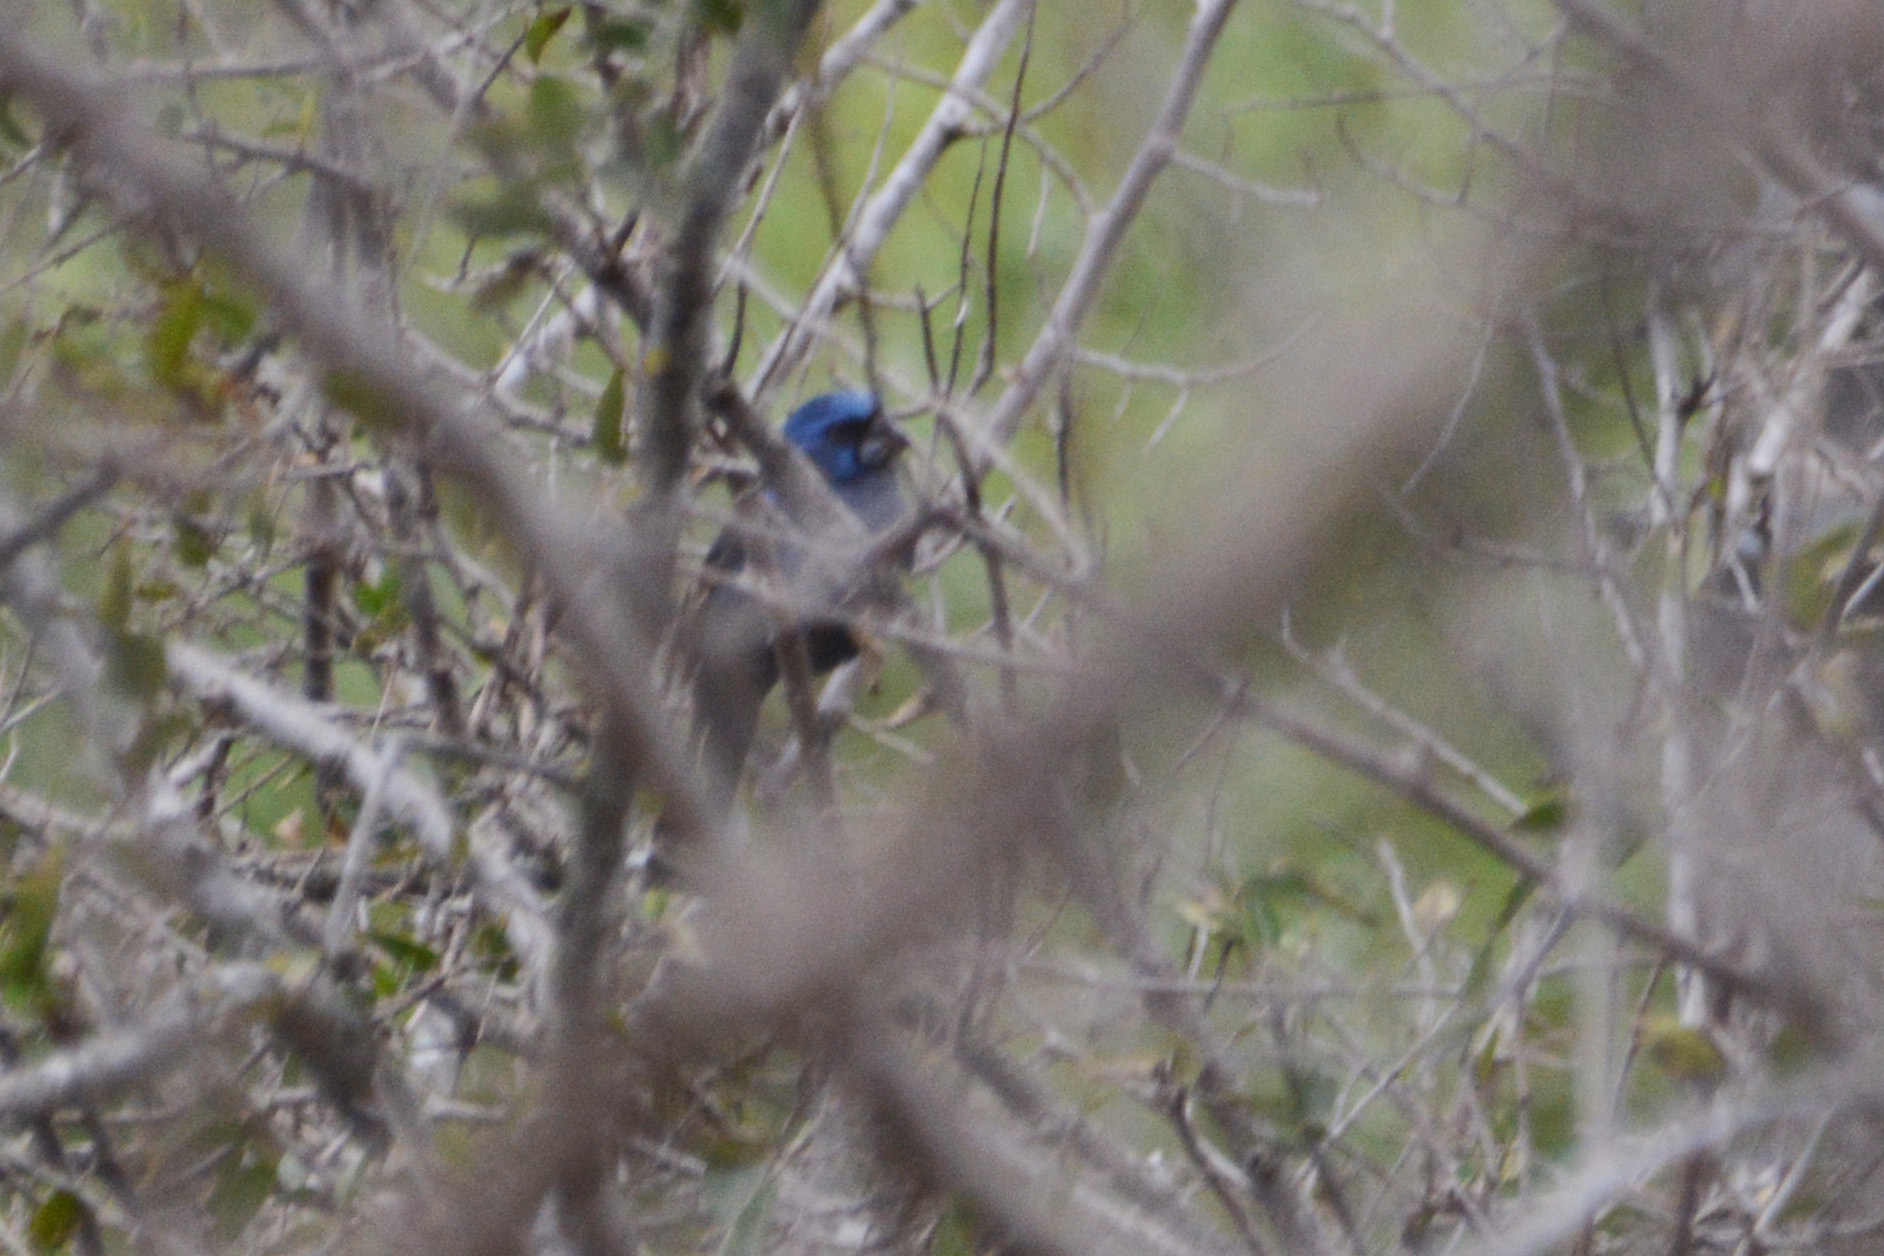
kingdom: Animalia
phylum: Chordata
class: Aves
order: Passeriformes
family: Cardinalidae
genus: Cyanoloxia
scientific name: Cyanoloxia brissonii
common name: Ultramarine grosbeak
